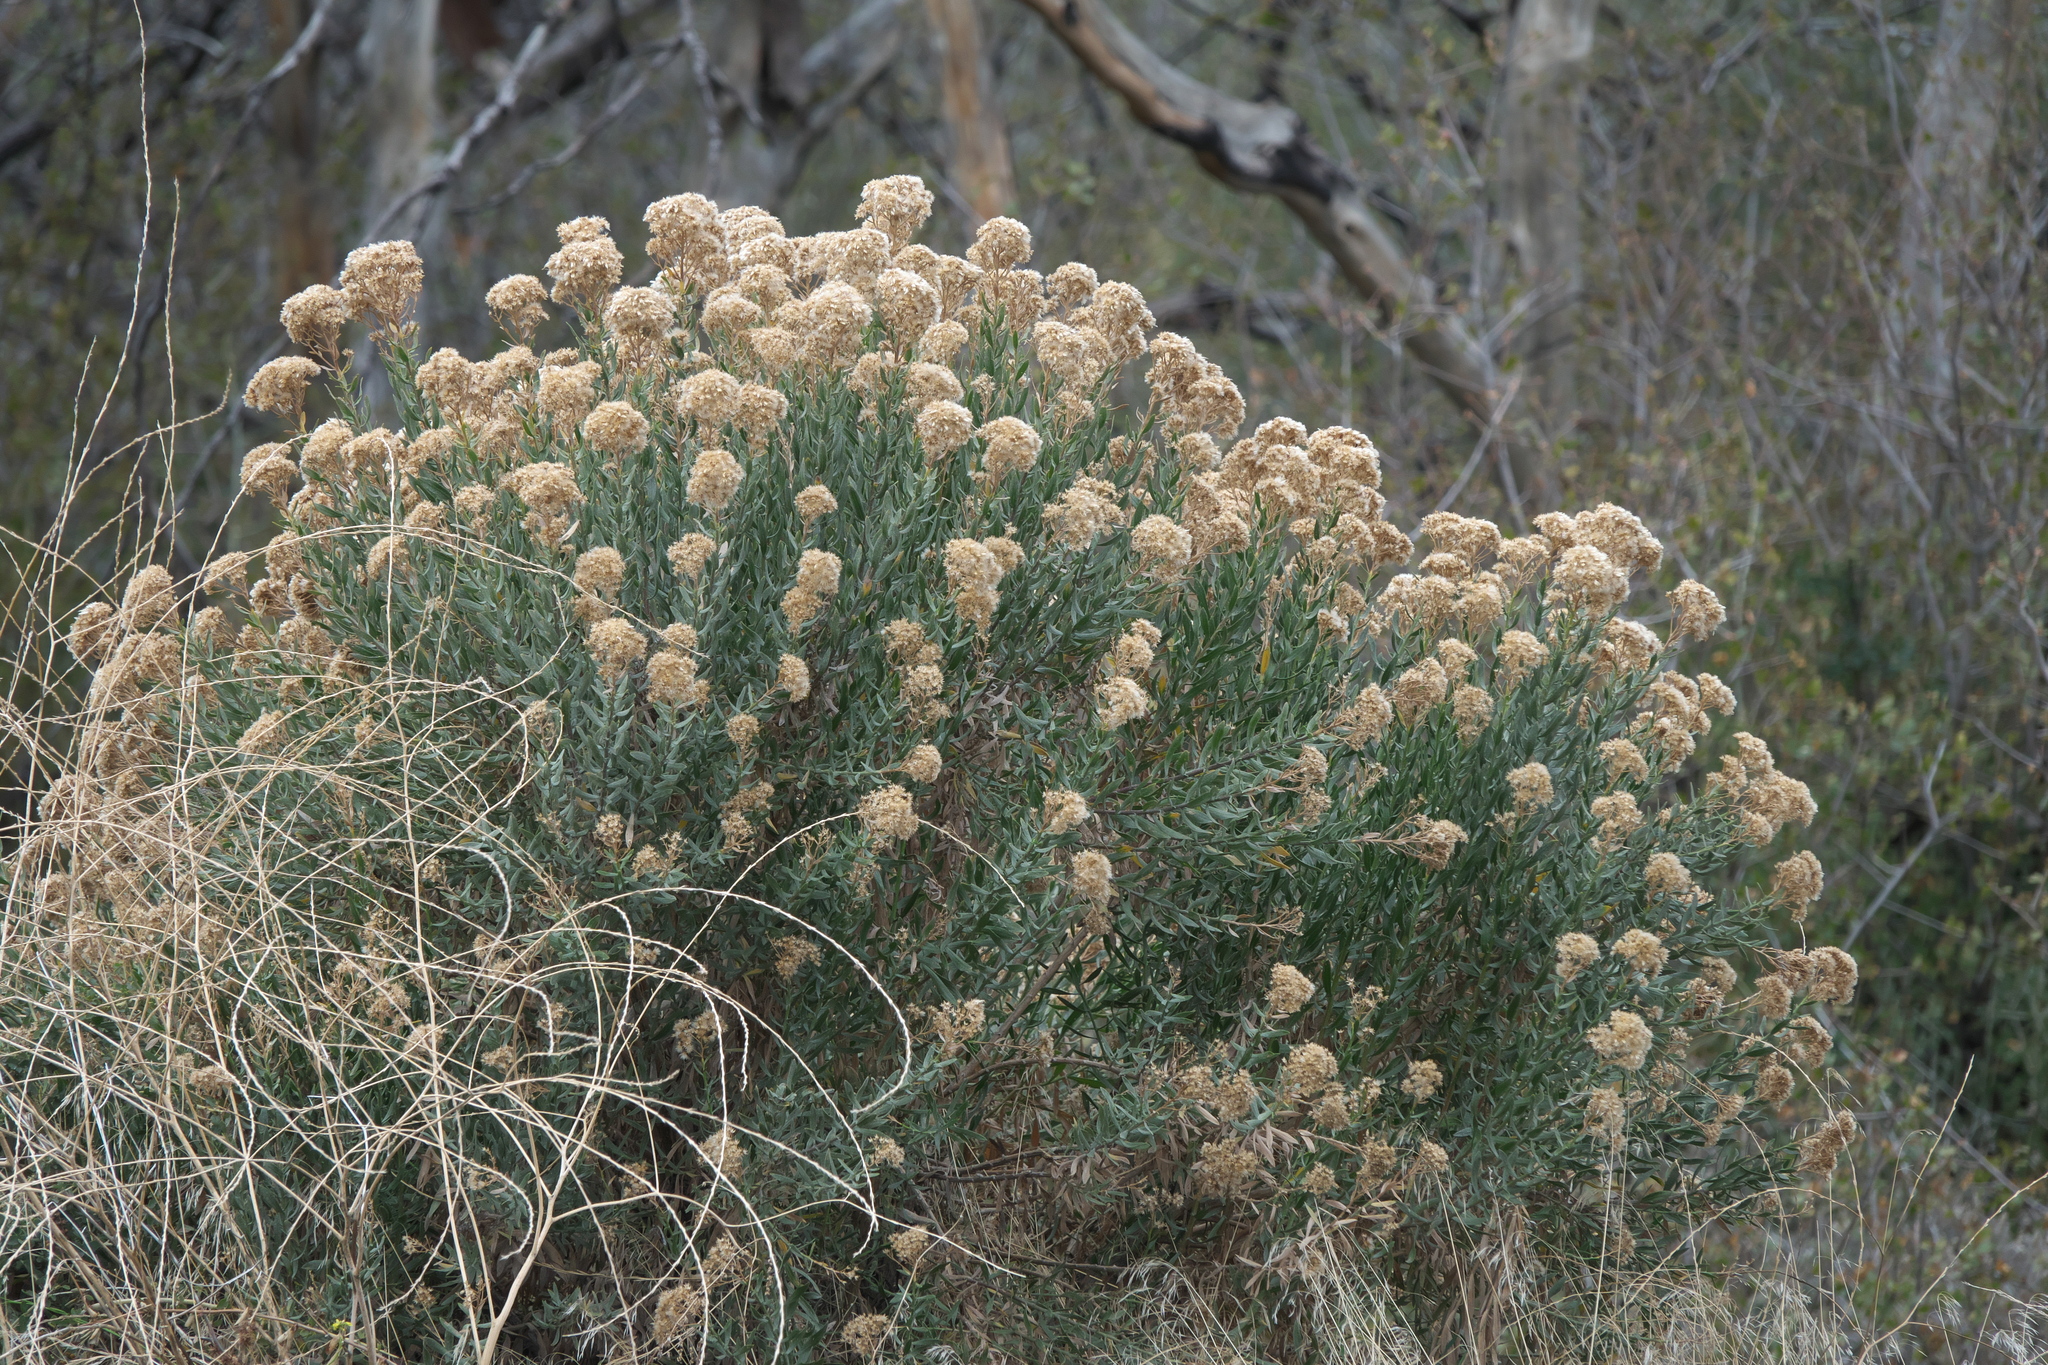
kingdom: Plantae
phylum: Tracheophyta
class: Magnoliopsida
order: Asterales
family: Asteraceae
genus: Ericameria
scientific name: Ericameria parishii
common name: Parish's goldenbush
